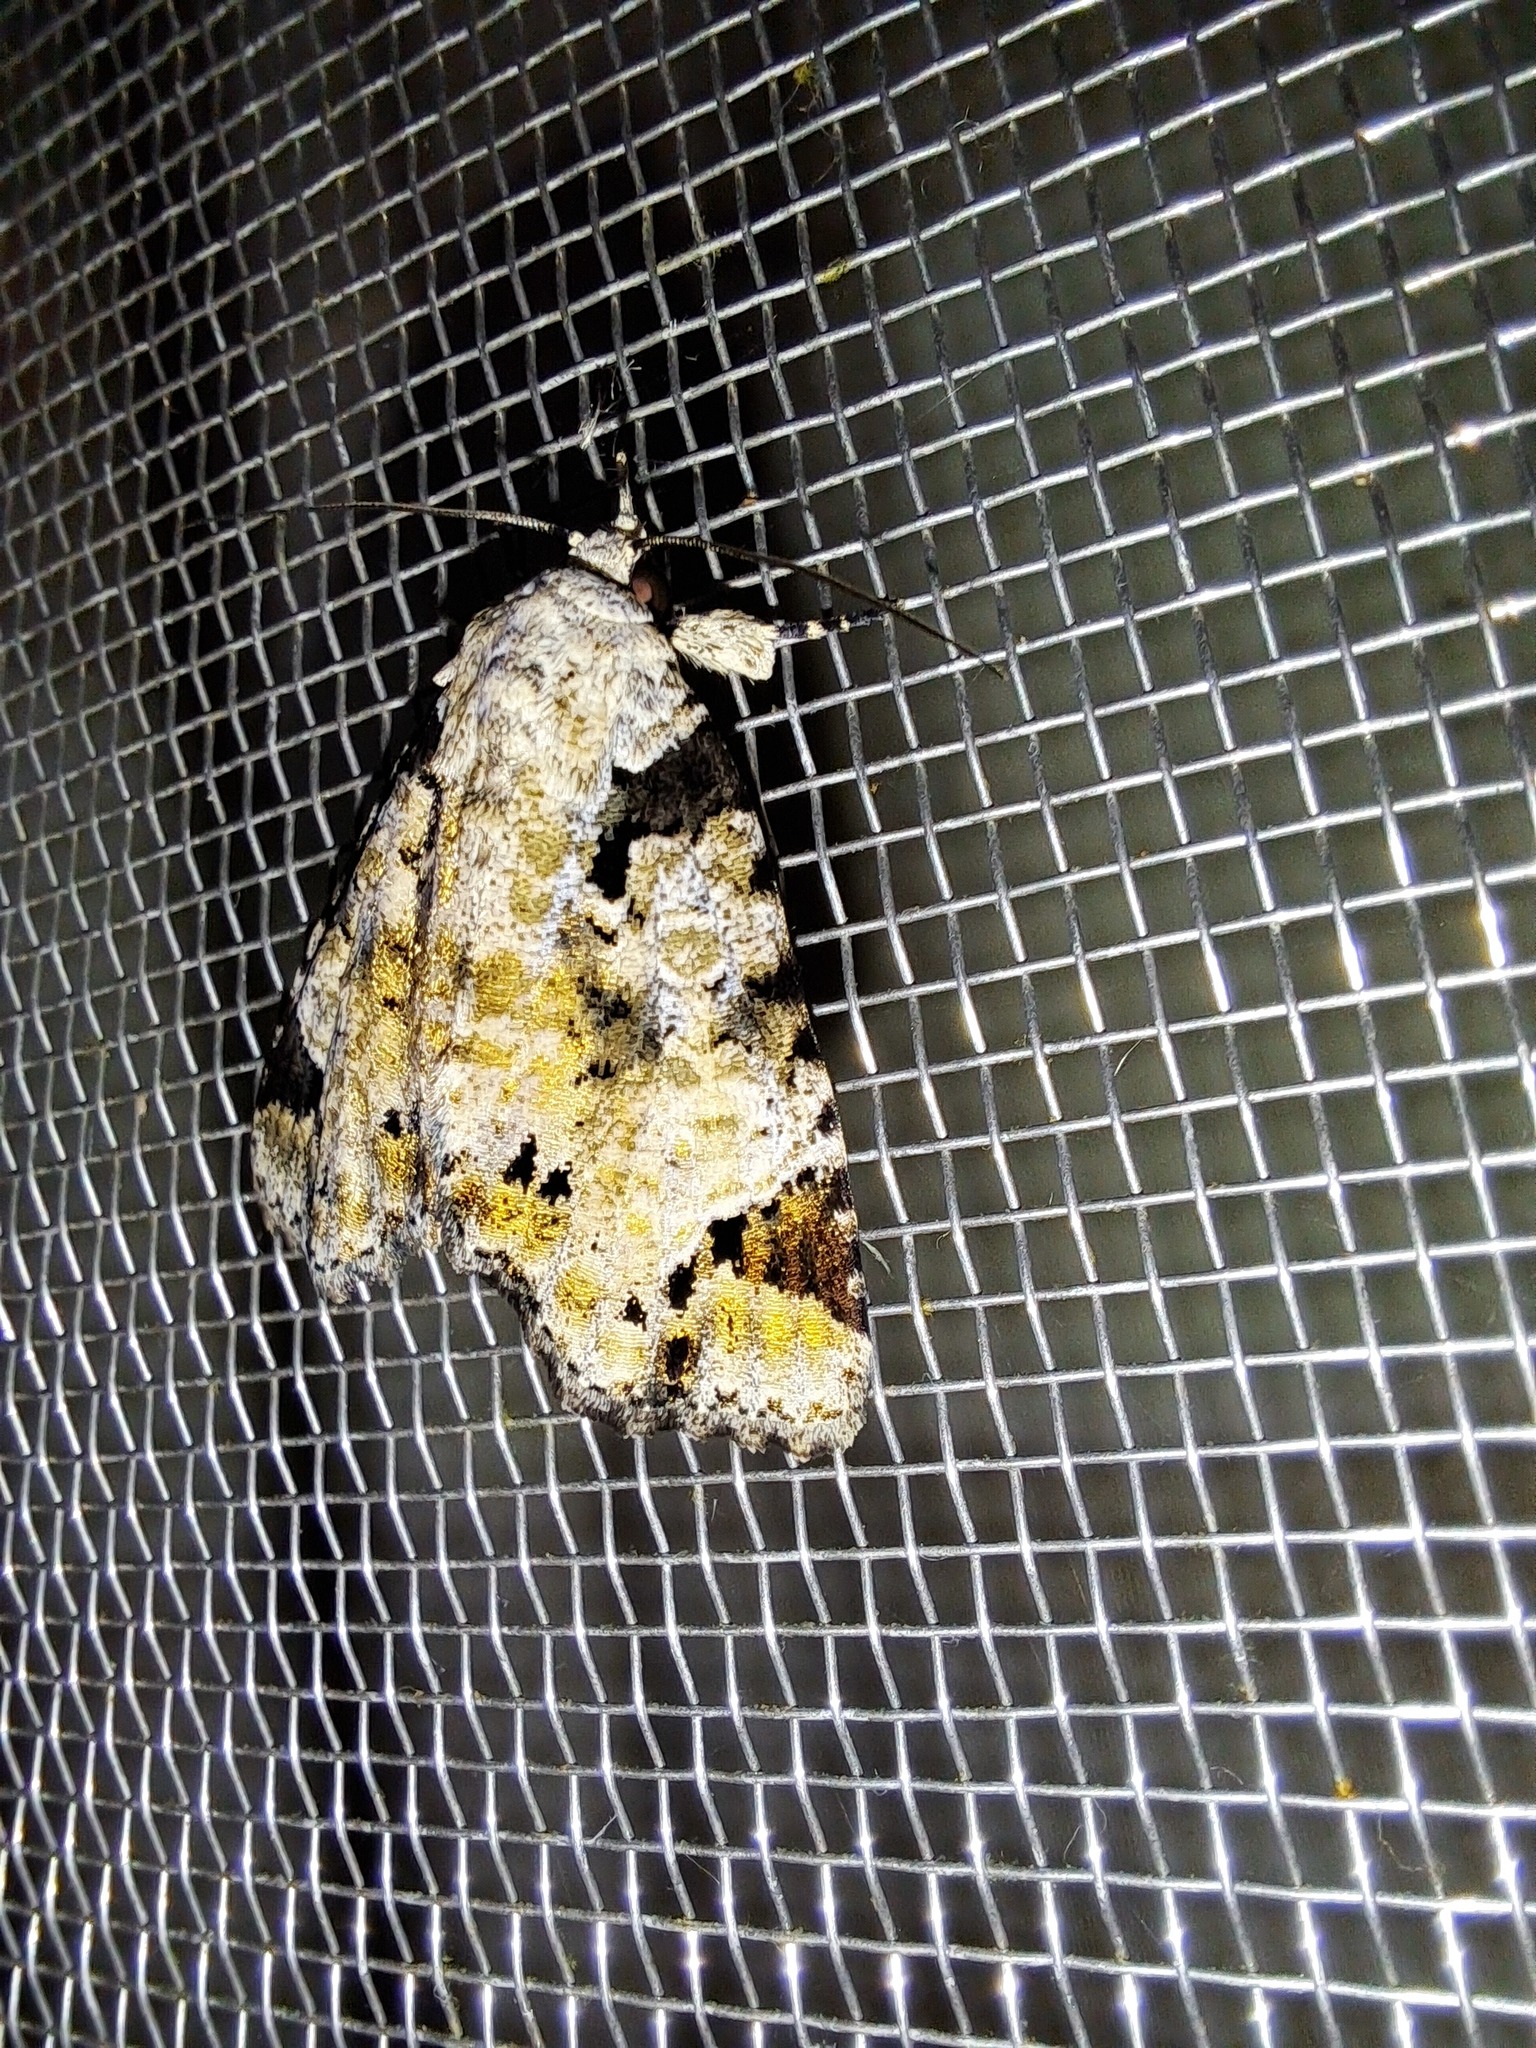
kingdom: Animalia
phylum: Arthropoda
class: Insecta
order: Lepidoptera
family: Erebidae
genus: Encruphion
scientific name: Encruphion porrima
